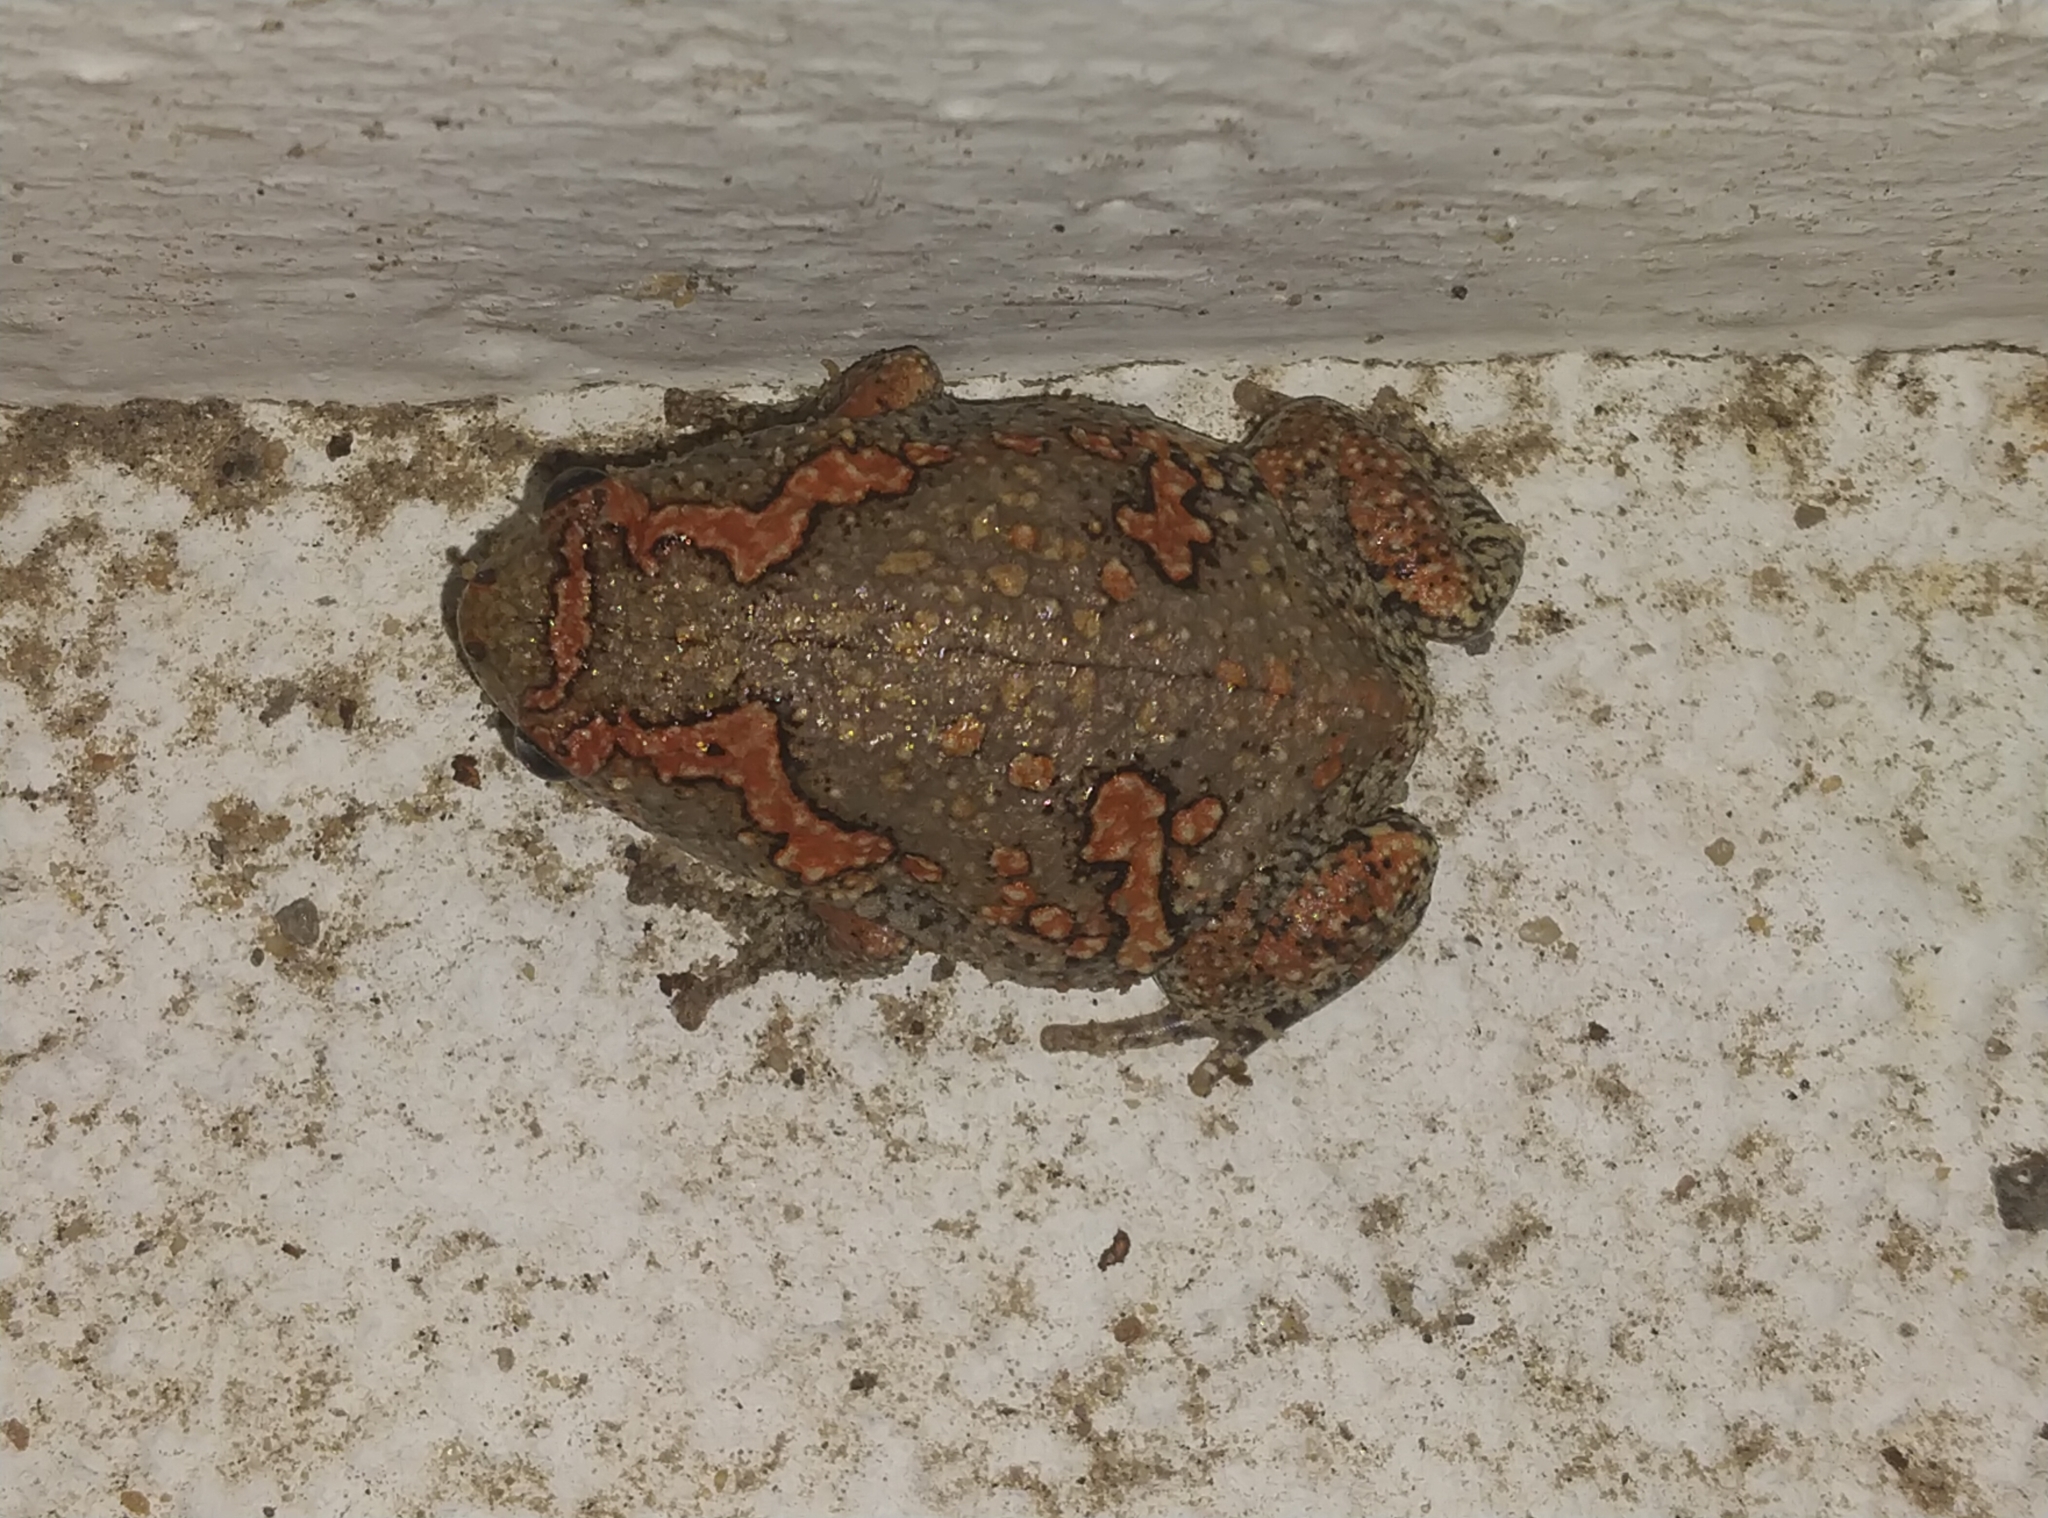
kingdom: Animalia
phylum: Chordata
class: Amphibia
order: Anura
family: Microhylidae
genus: Uperodon
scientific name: Uperodon taprobanicus
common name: Ceylon kaloula
